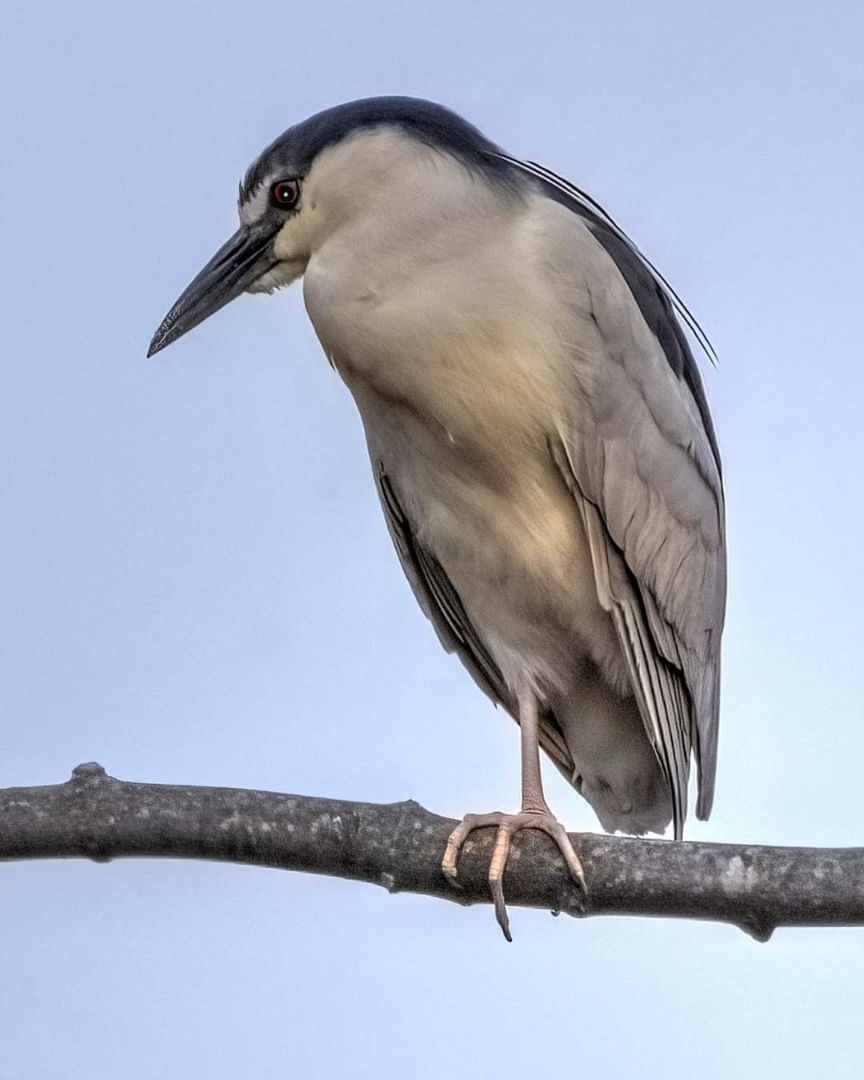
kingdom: Animalia
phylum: Chordata
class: Aves
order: Pelecaniformes
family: Ardeidae
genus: Nycticorax
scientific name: Nycticorax nycticorax
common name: Black-crowned night heron
